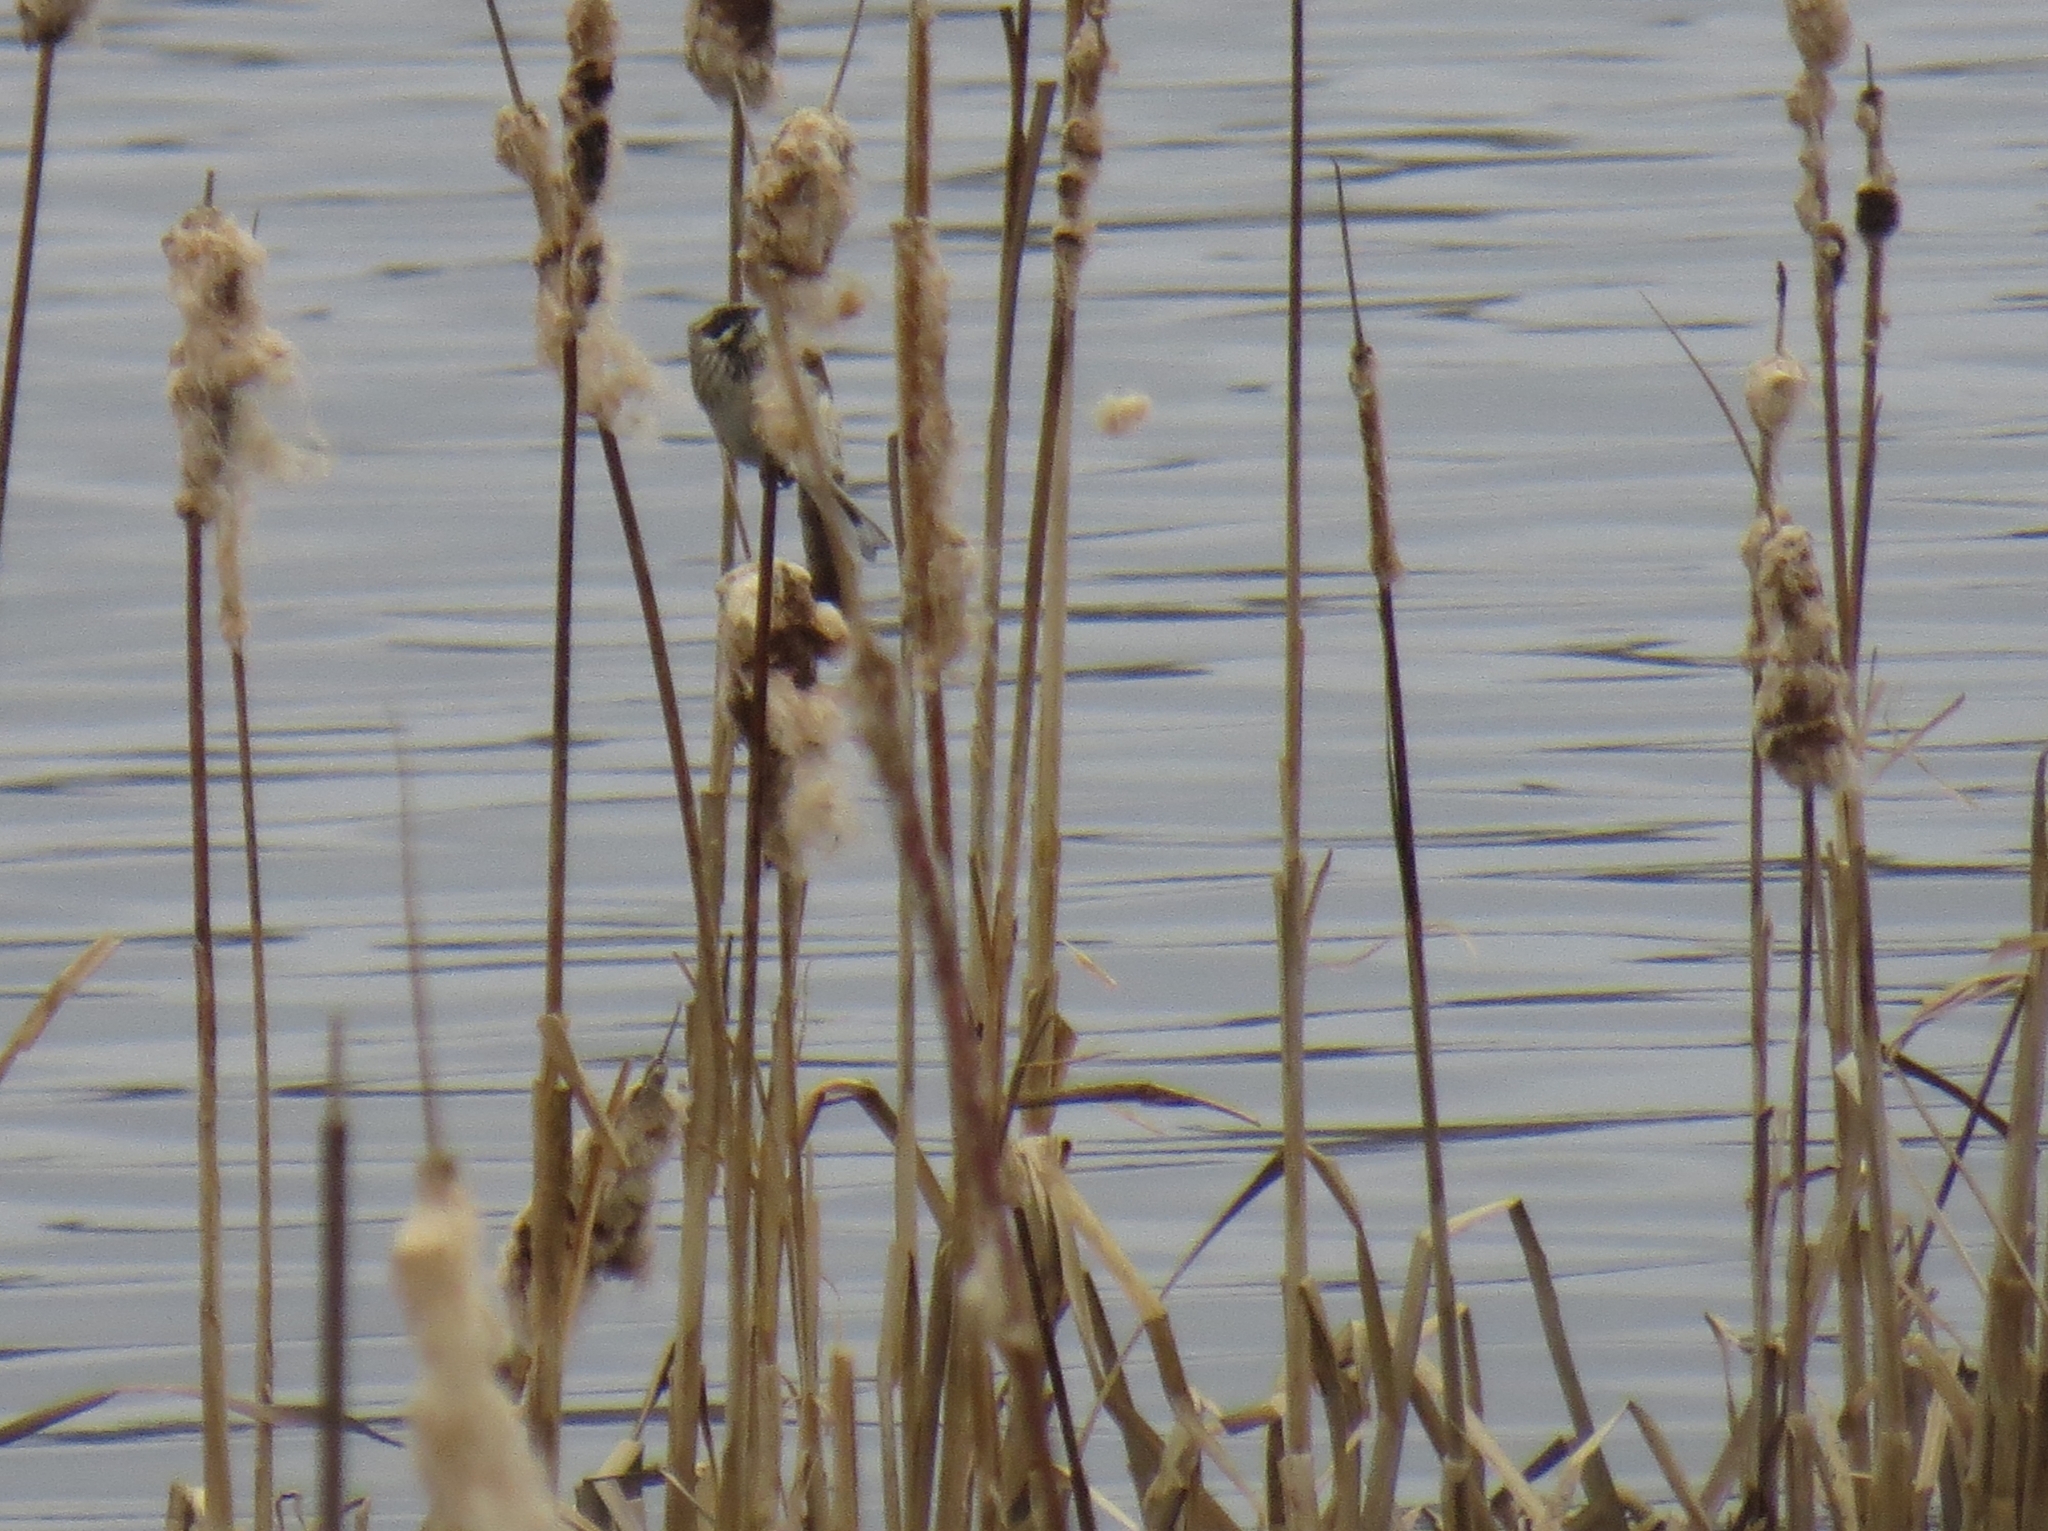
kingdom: Animalia
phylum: Chordata
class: Aves
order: Passeriformes
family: Emberizidae
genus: Emberiza
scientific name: Emberiza schoeniclus
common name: Reed bunting
